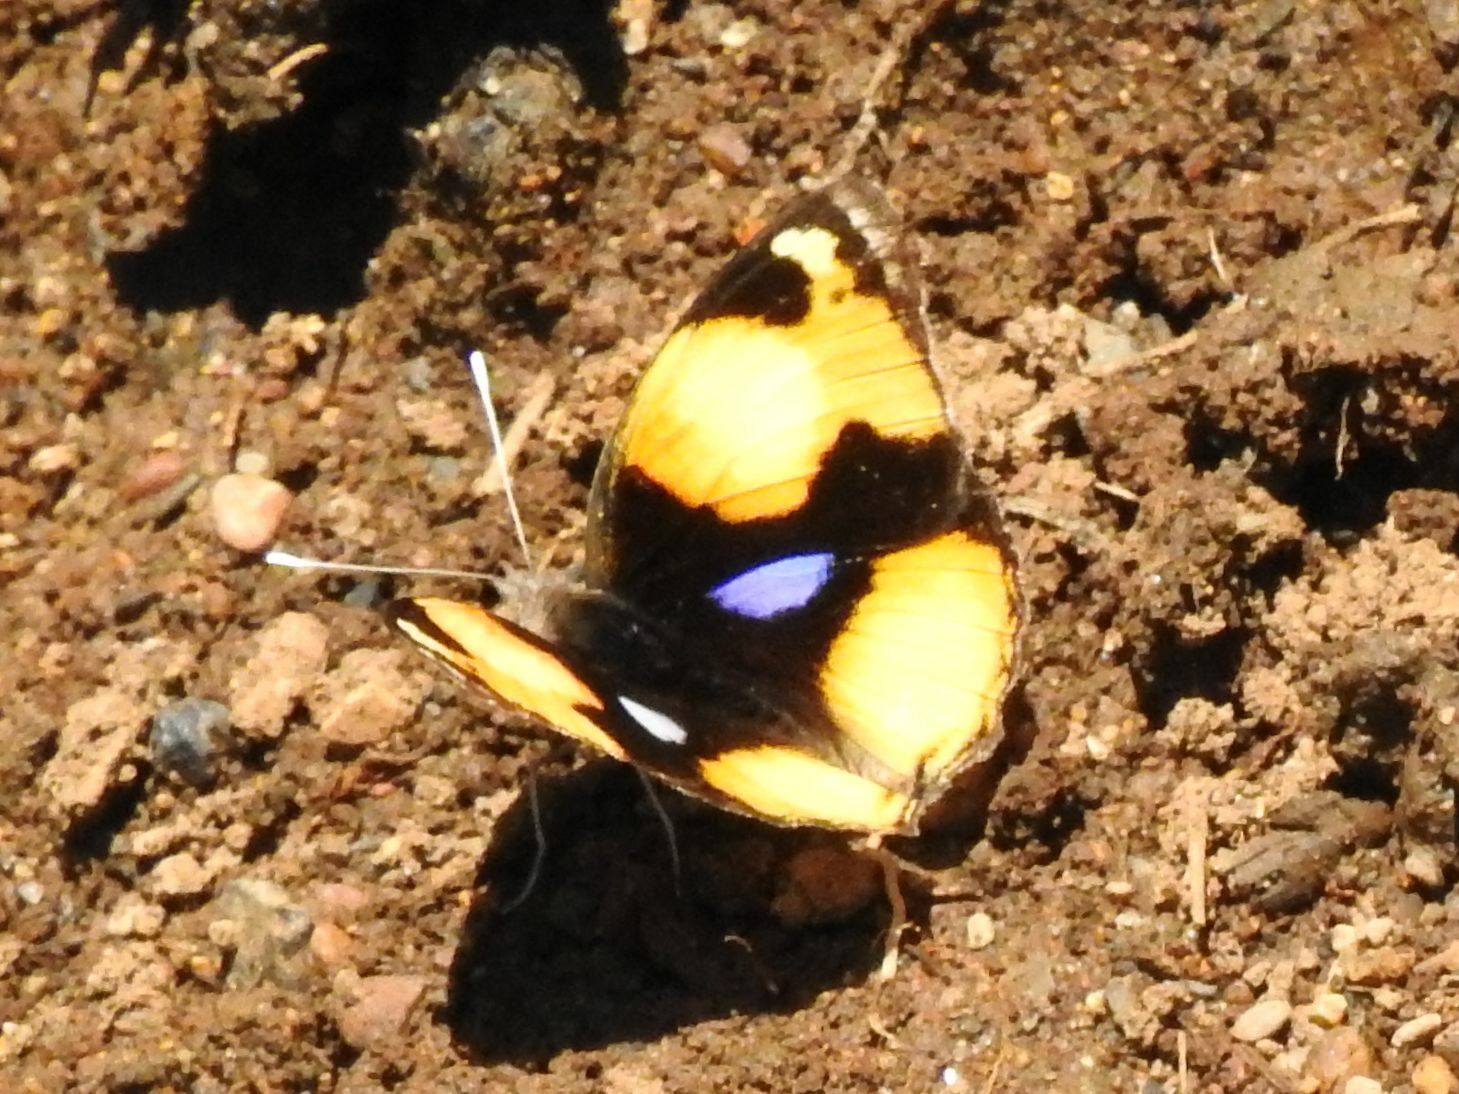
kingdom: Animalia
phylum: Arthropoda
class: Insecta
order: Lepidoptera
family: Nymphalidae
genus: Junonia
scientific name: Junonia hierta
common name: Yellow pansy
